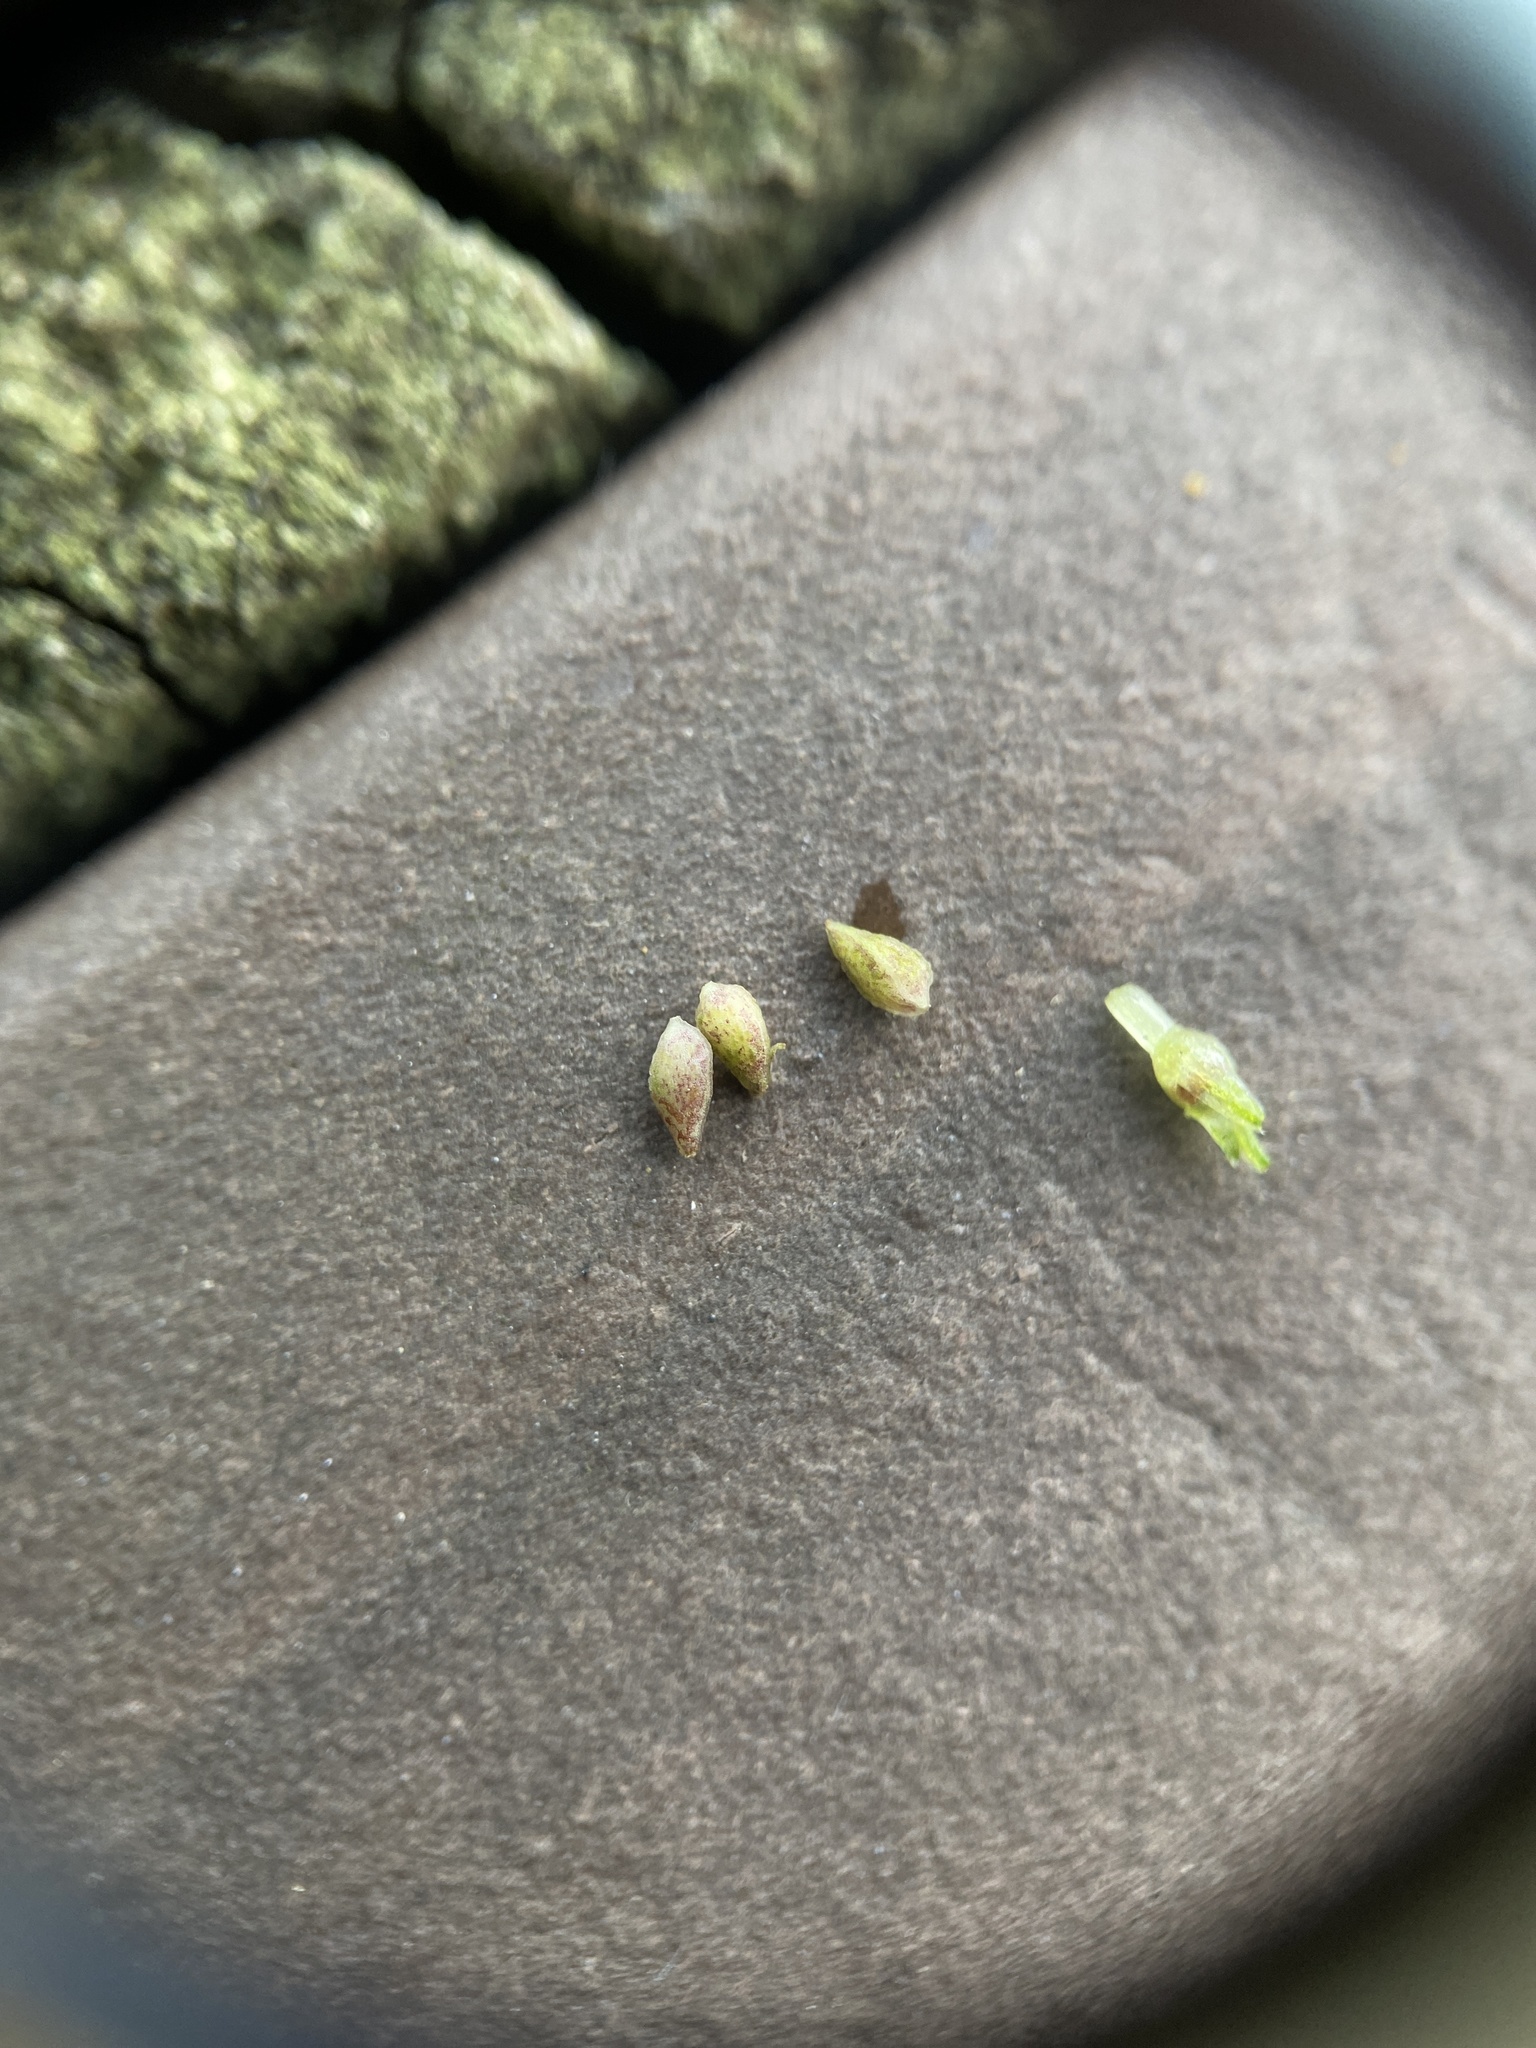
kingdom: Plantae
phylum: Tracheophyta
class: Magnoliopsida
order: Rosales
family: Urticaceae
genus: Pilea
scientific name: Pilea pumila
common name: Clearweed
